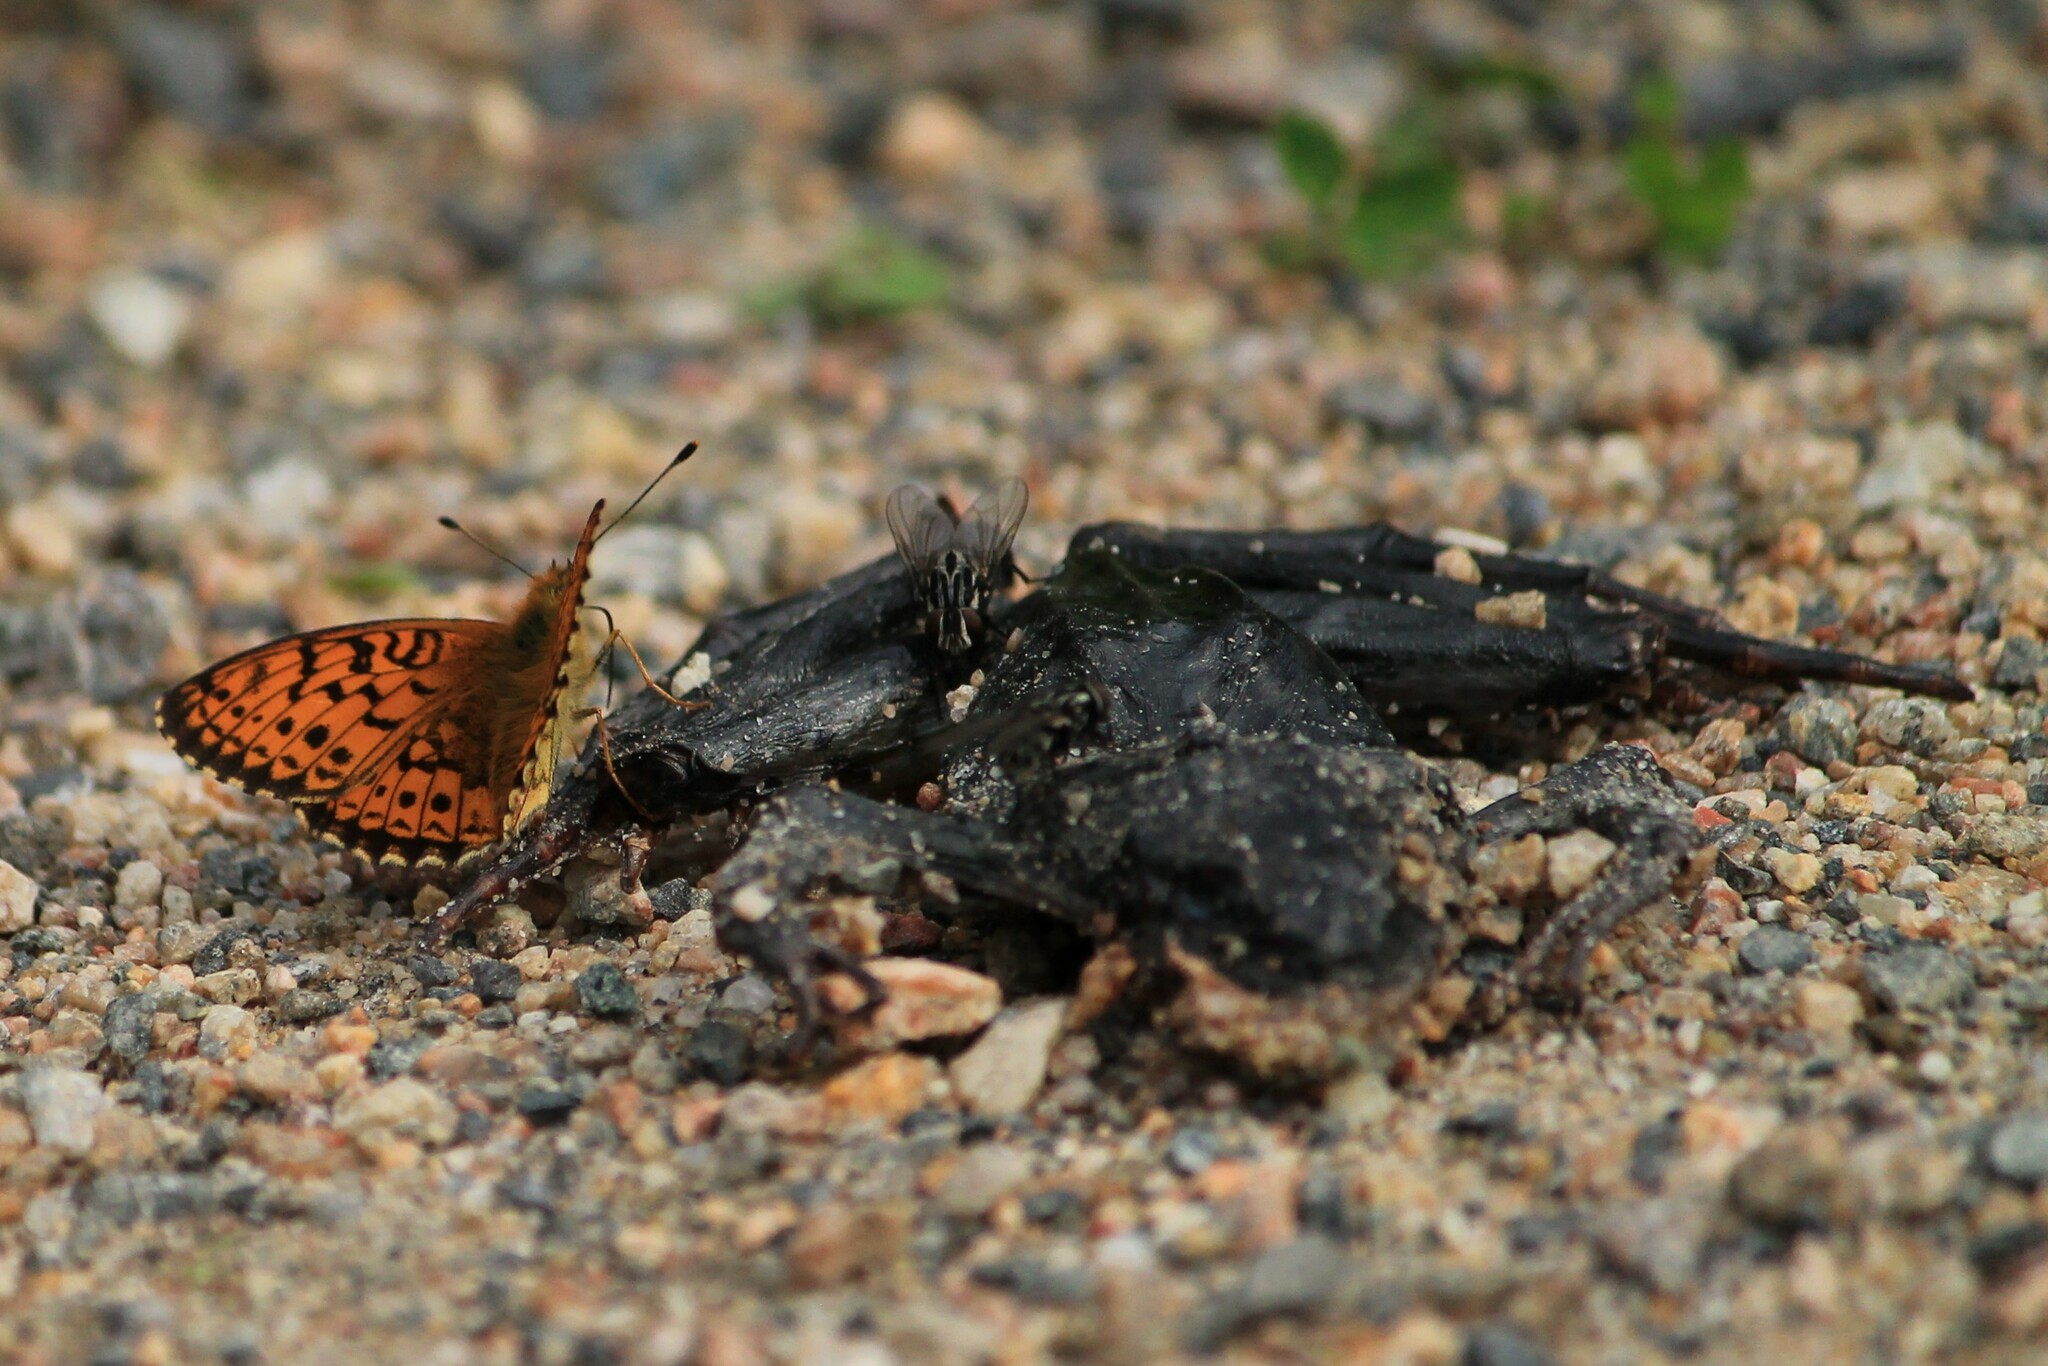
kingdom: Animalia
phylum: Arthropoda
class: Insecta
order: Lepidoptera
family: Nymphalidae
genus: Brenthis
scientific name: Brenthis ino
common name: Lesser marbled fritillary
